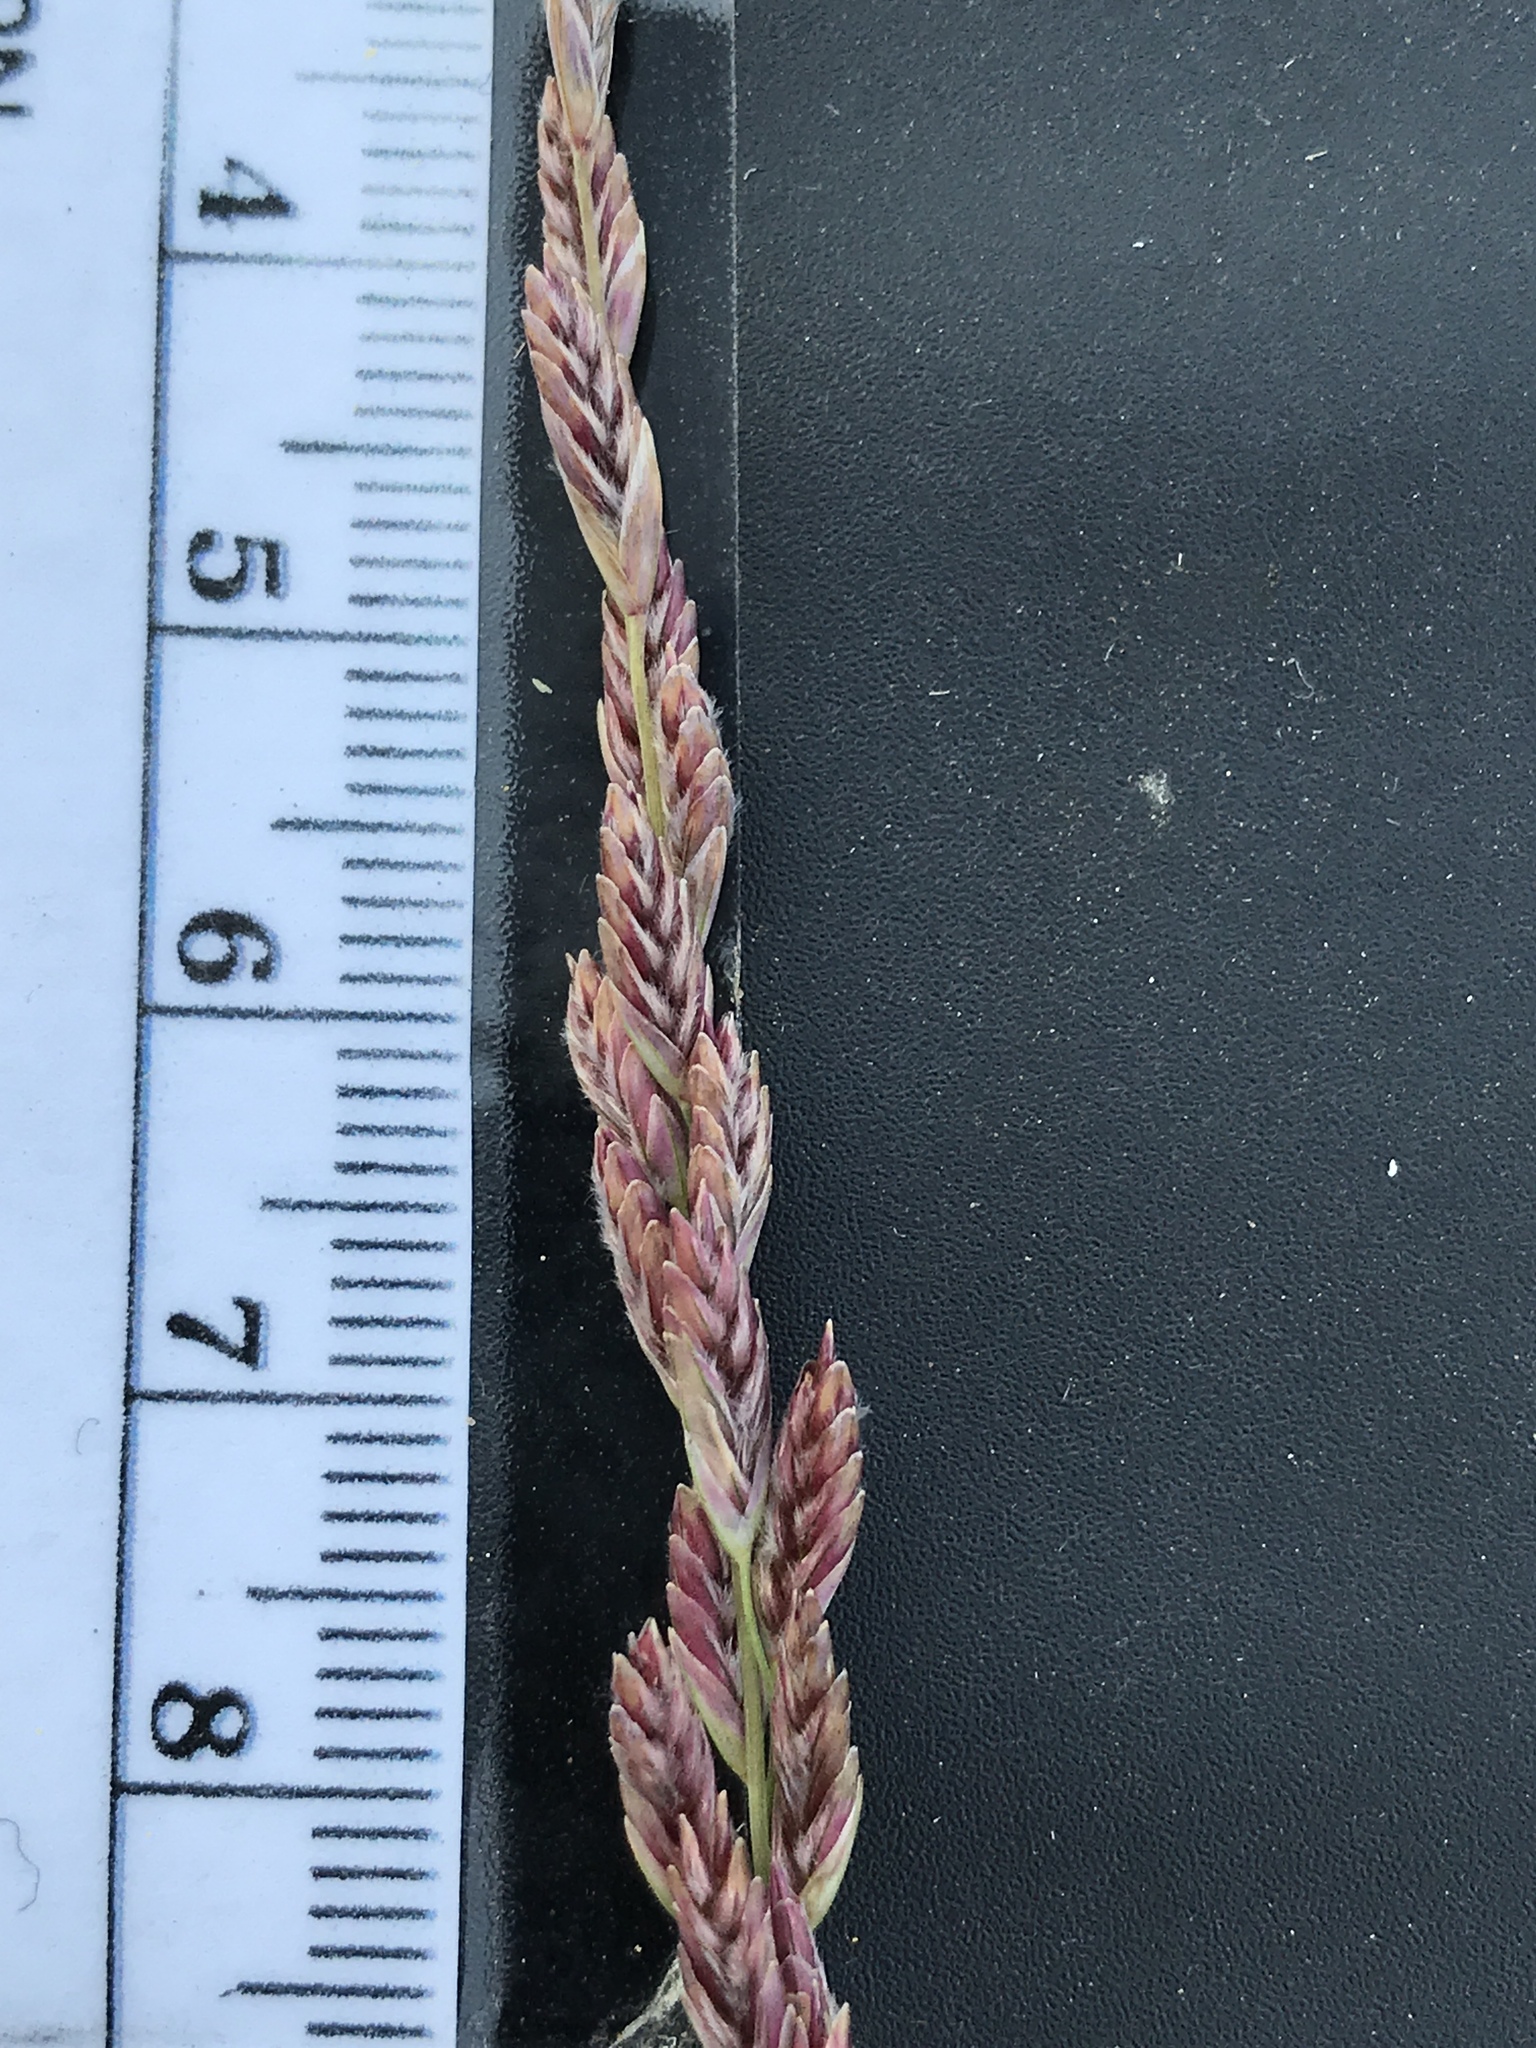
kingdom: Plantae
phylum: Tracheophyta
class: Liliopsida
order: Poales
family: Poaceae
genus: Tridentopsis
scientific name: Tridentopsis mutica
